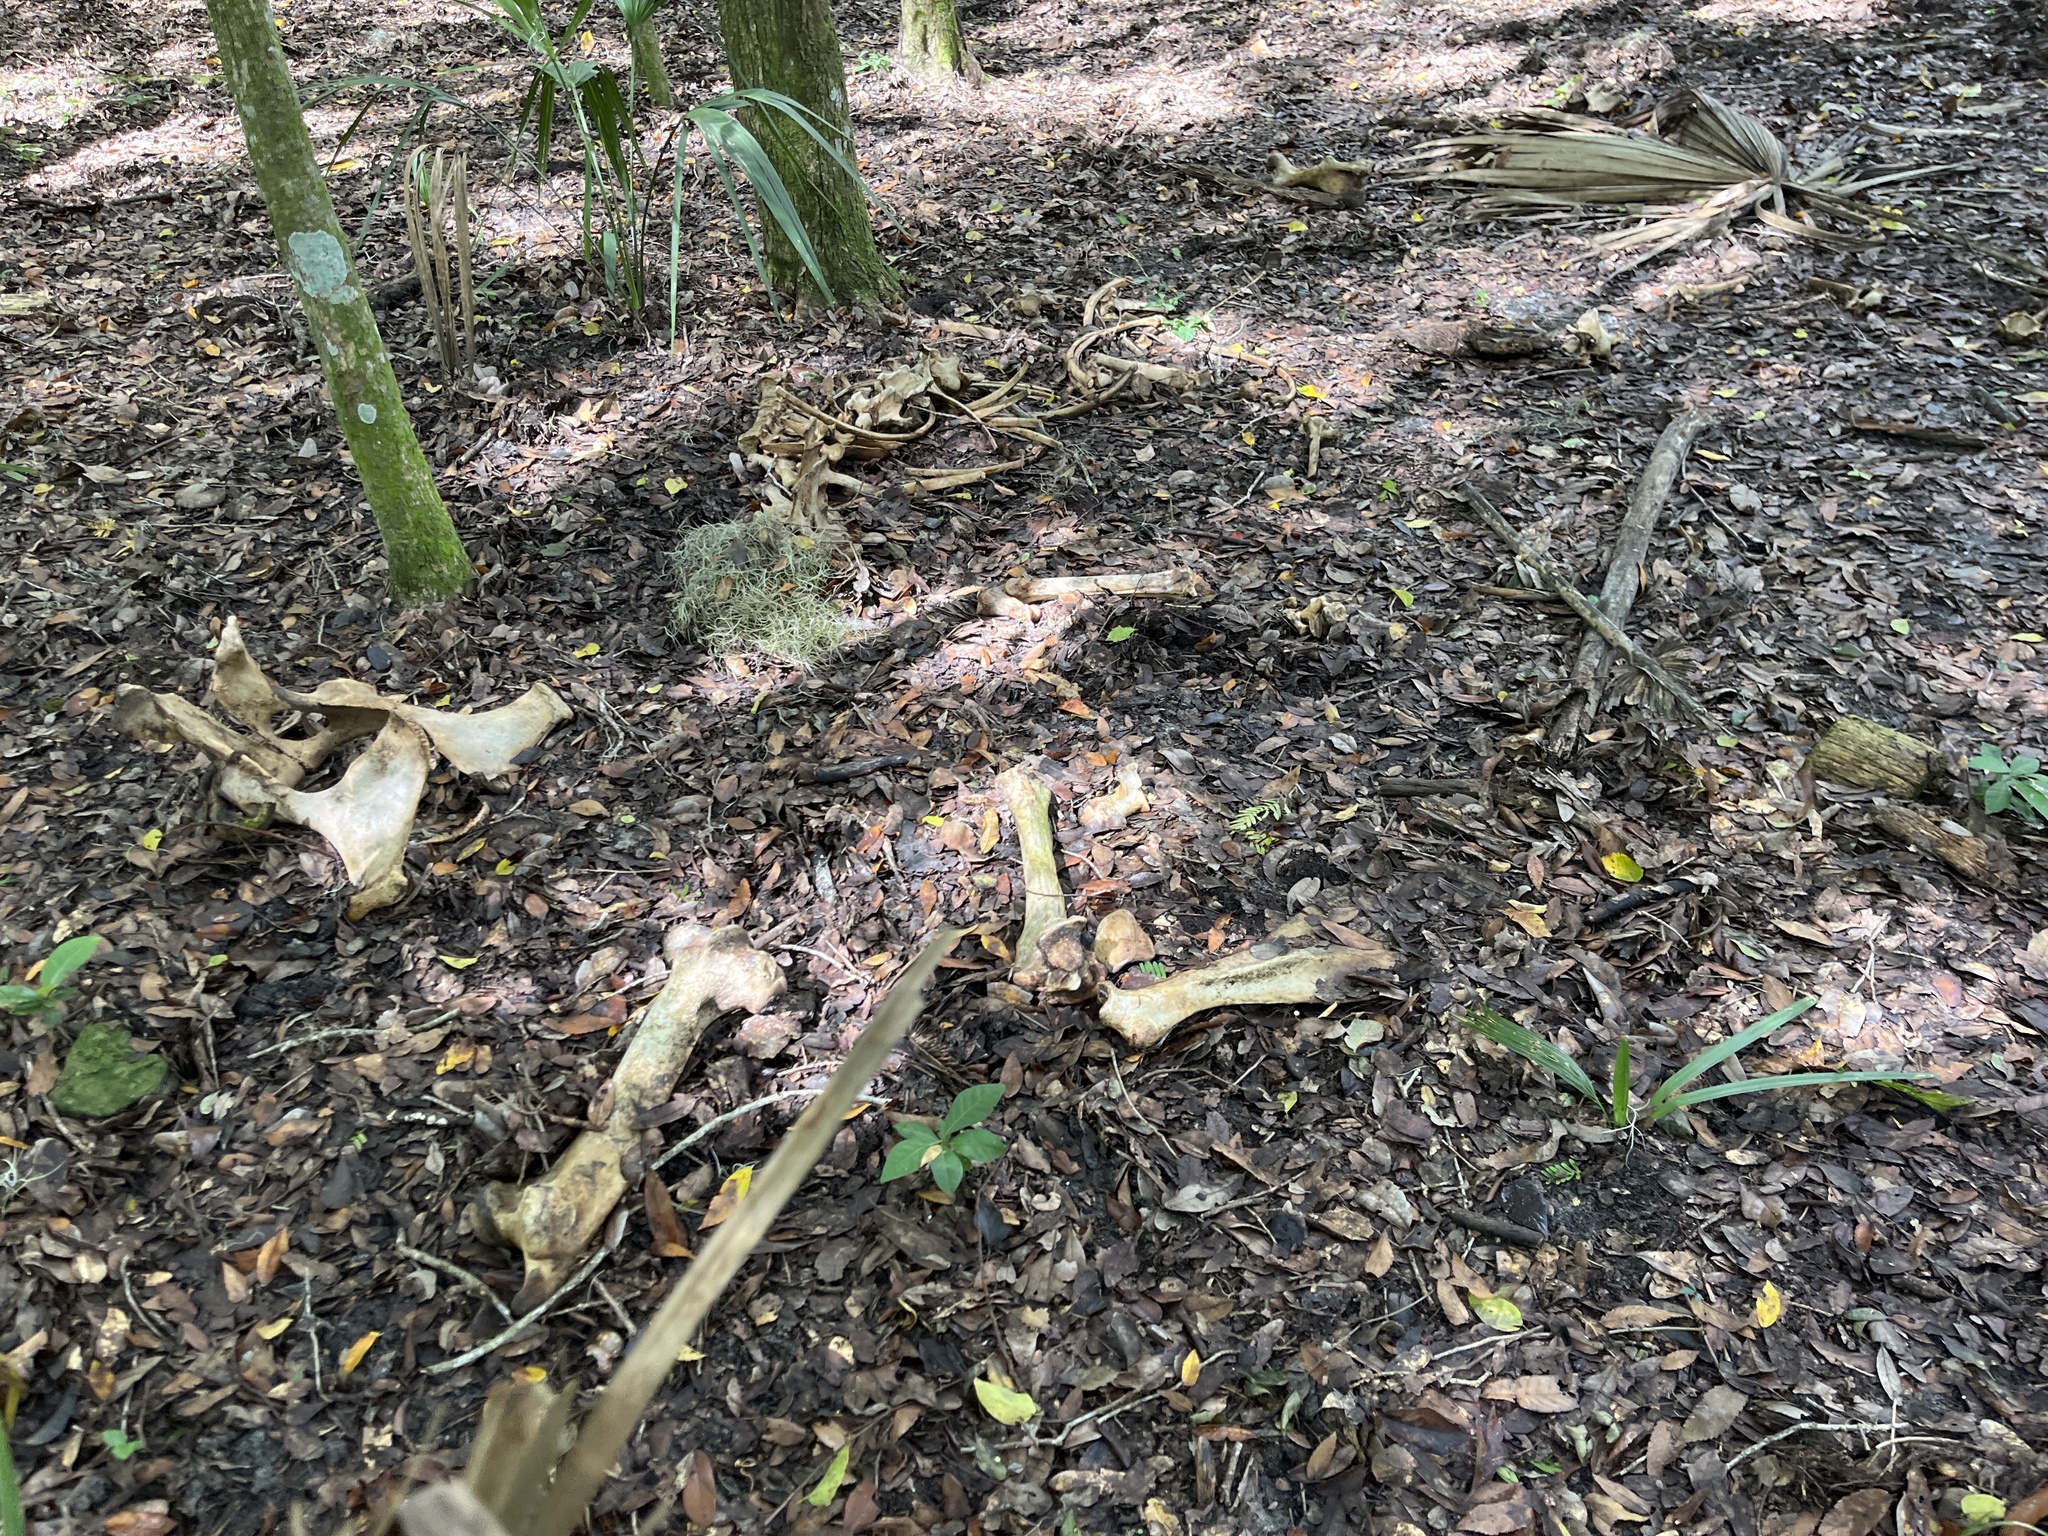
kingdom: Animalia
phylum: Chordata
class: Mammalia
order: Perissodactyla
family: Equidae
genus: Equus
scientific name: Equus caballus
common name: Horse
